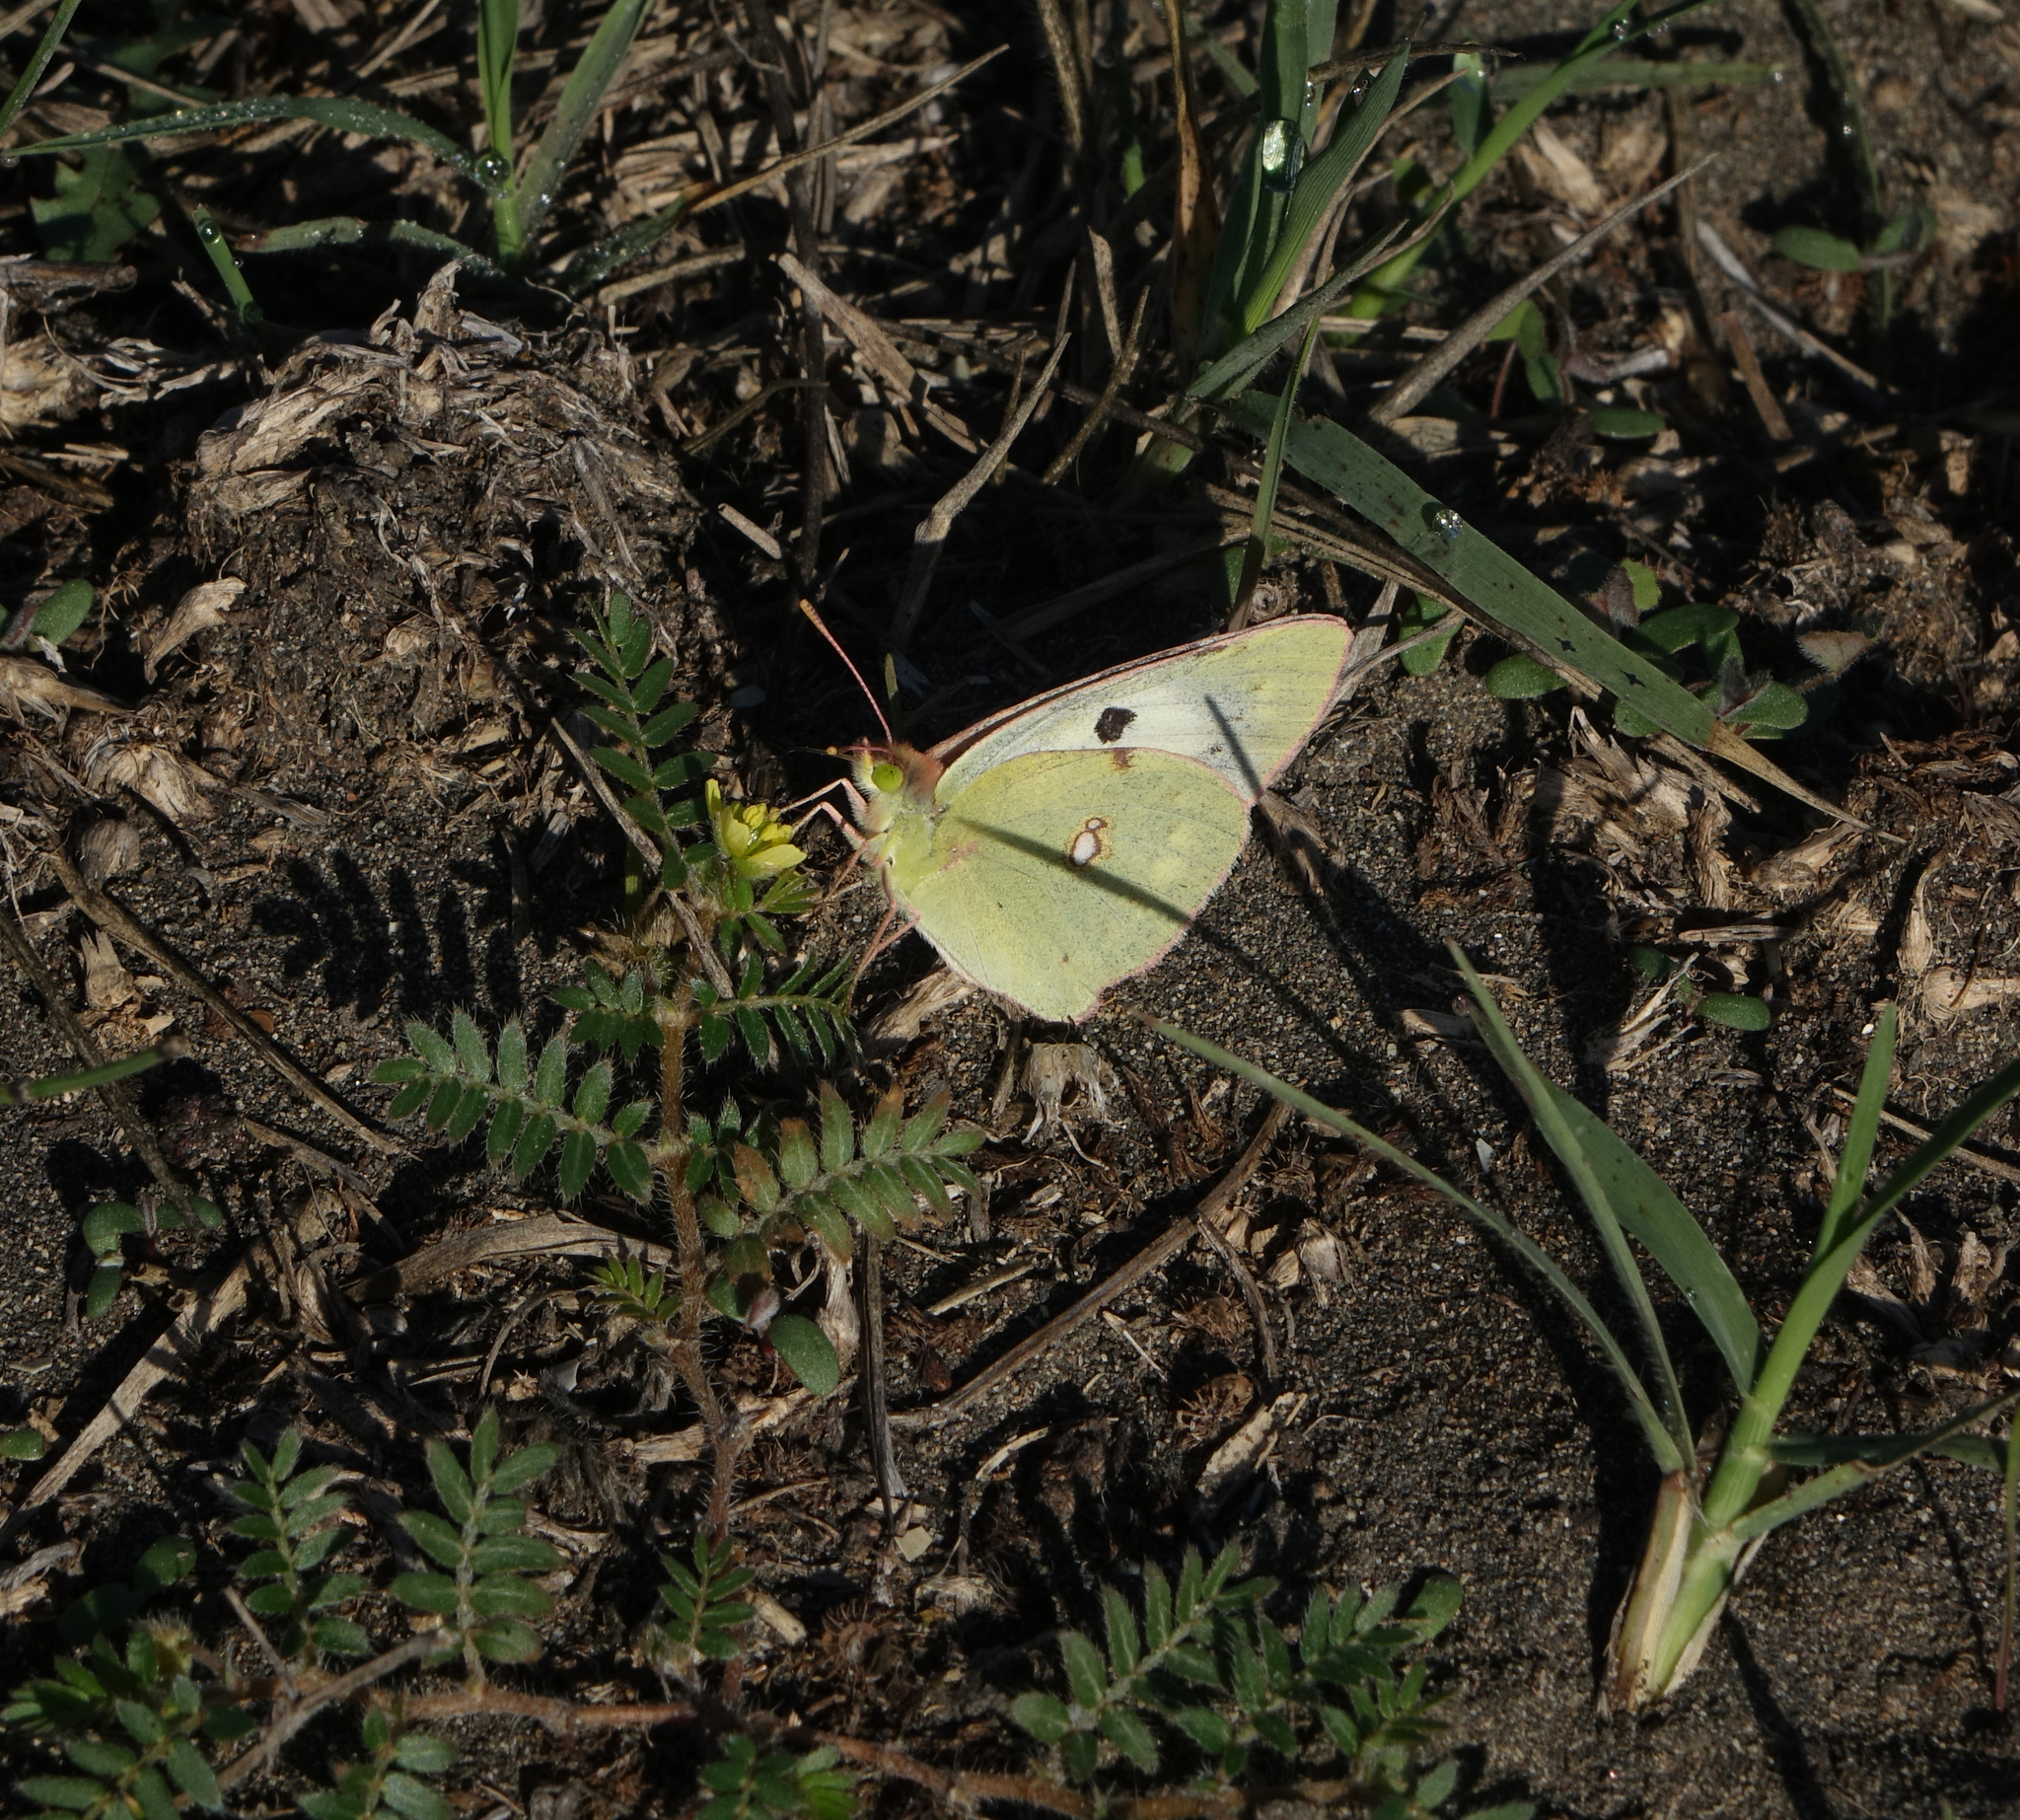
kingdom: Animalia
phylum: Arthropoda
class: Insecta
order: Lepidoptera
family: Pieridae
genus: Colias
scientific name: Colias croceus
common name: Clouded yellow
